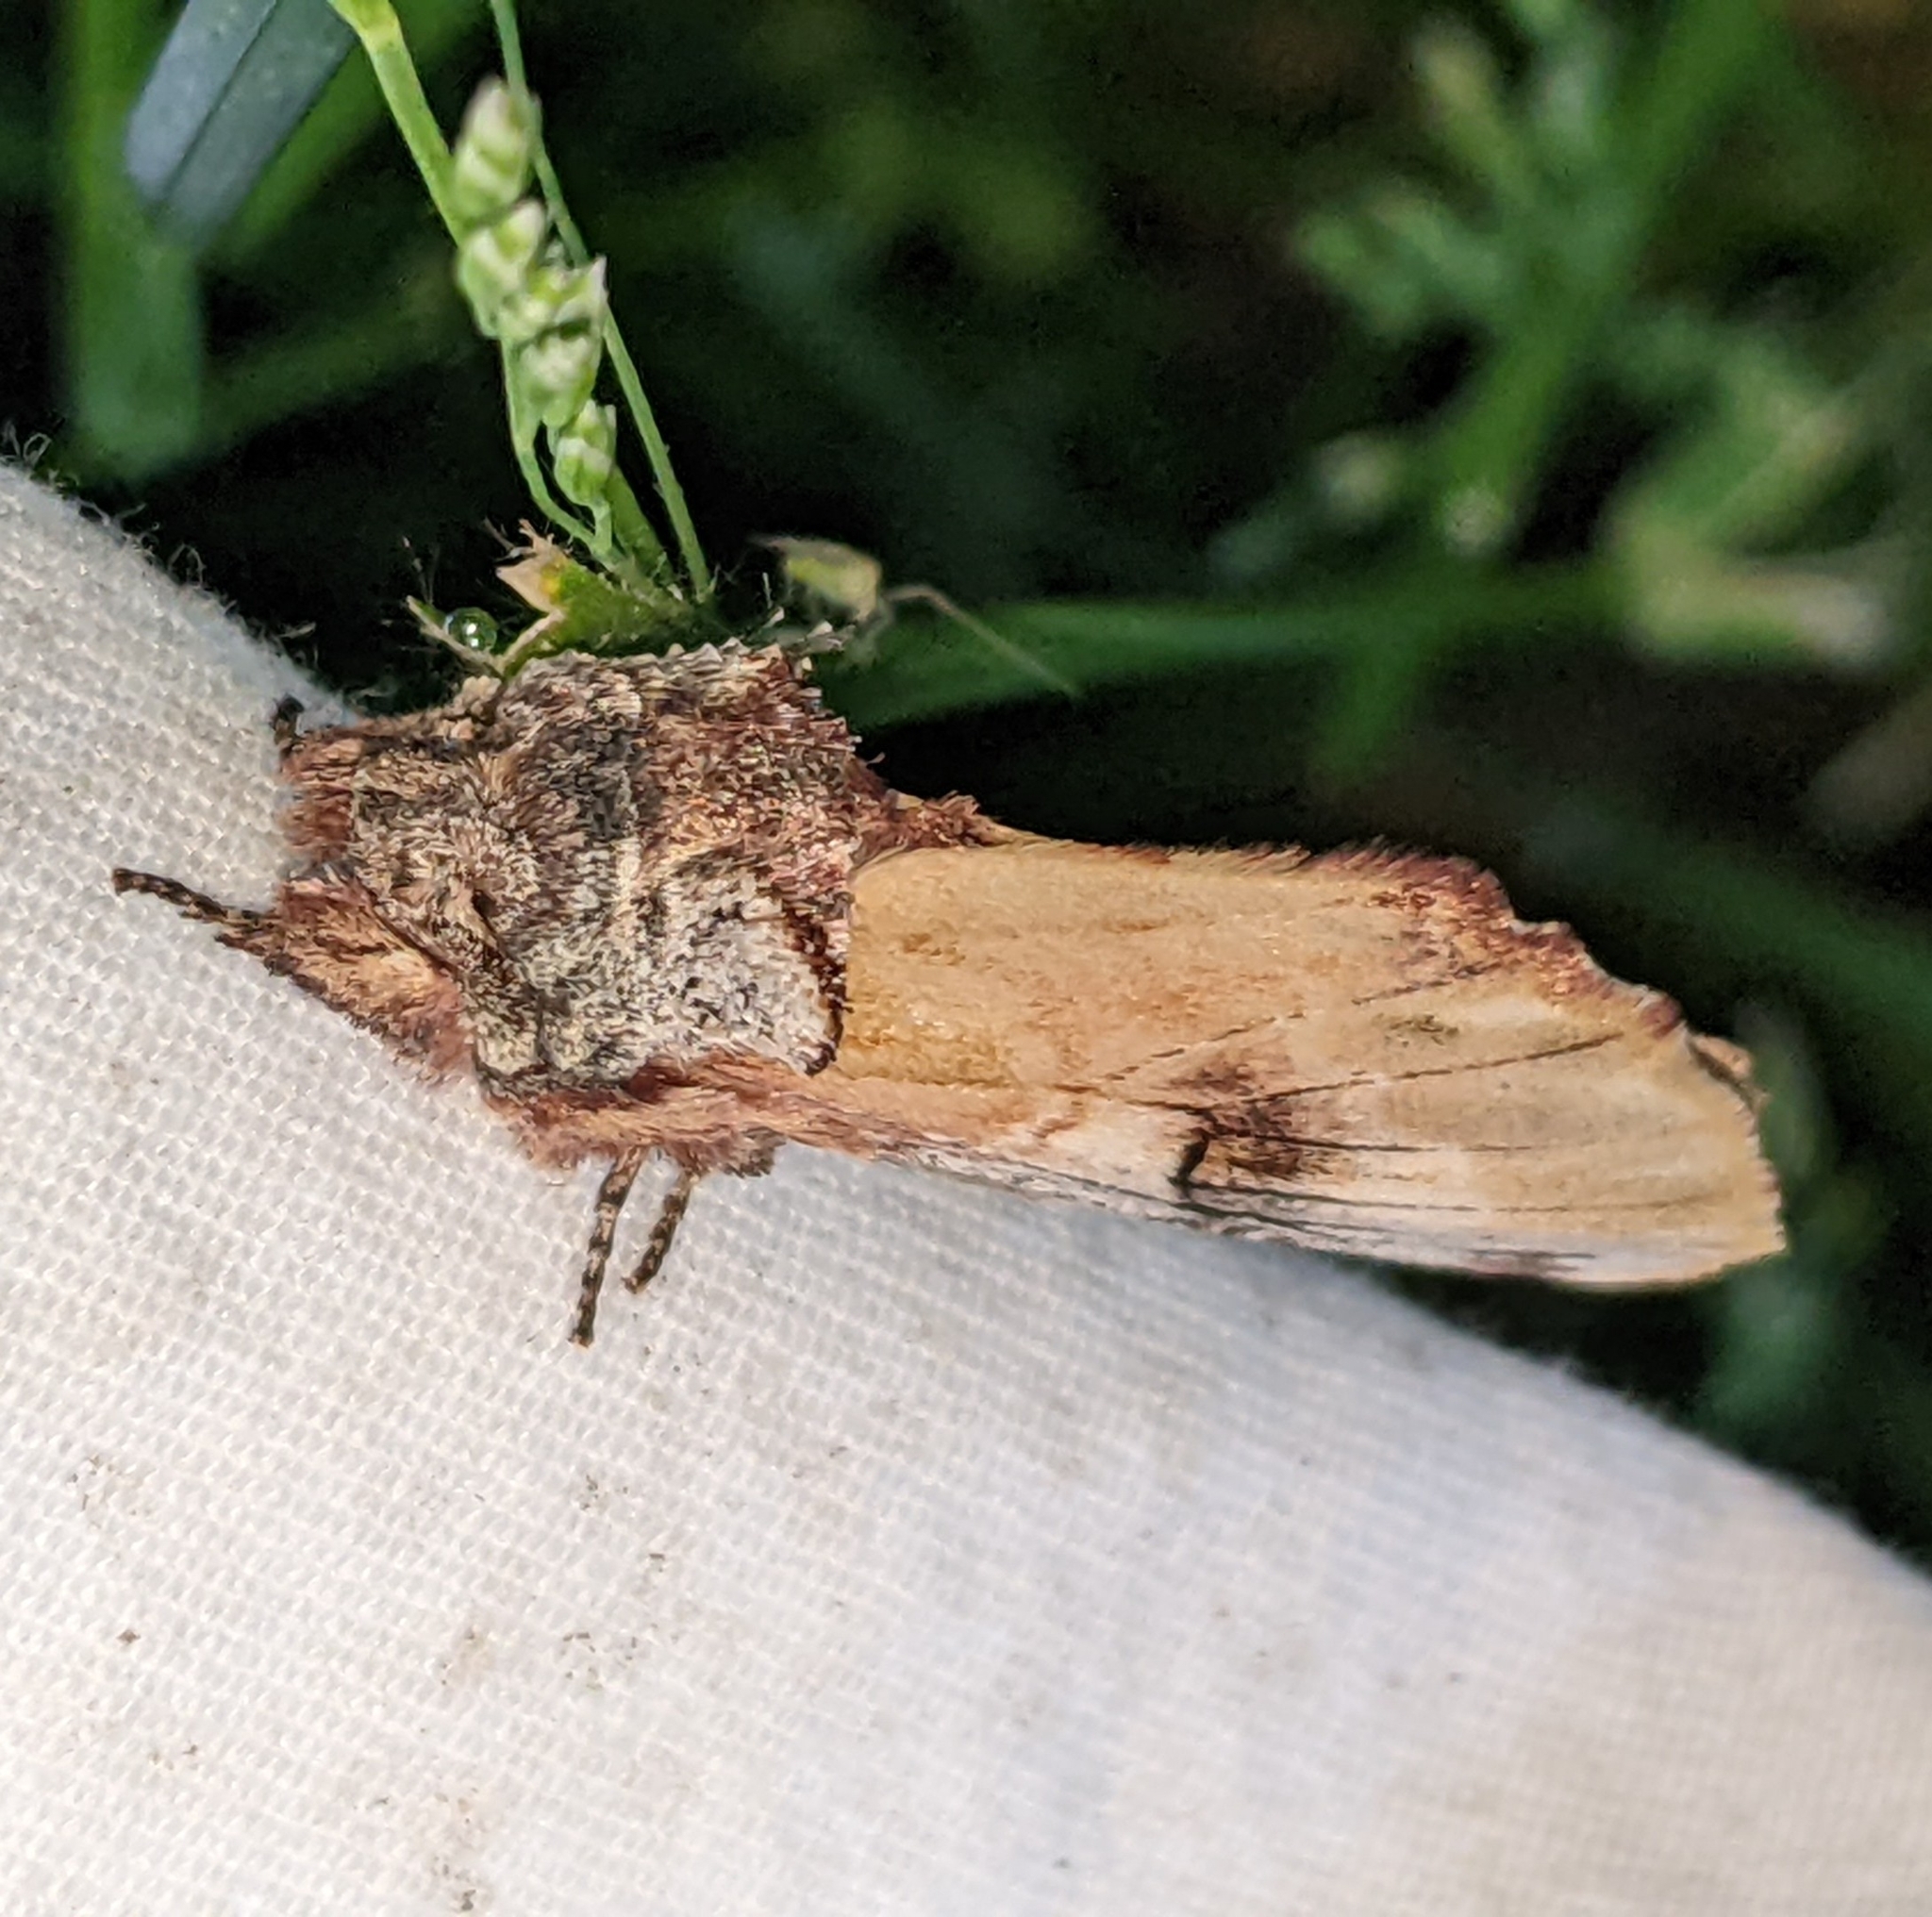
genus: Ianassa
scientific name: Ianassa
